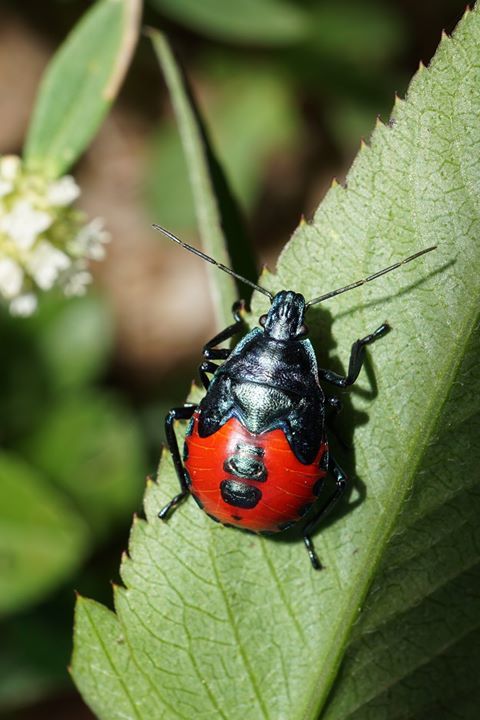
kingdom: Animalia
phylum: Arthropoda
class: Insecta
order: Hemiptera
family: Pentatomidae
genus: Euthyrhynchus
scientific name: Euthyrhynchus floridanus
